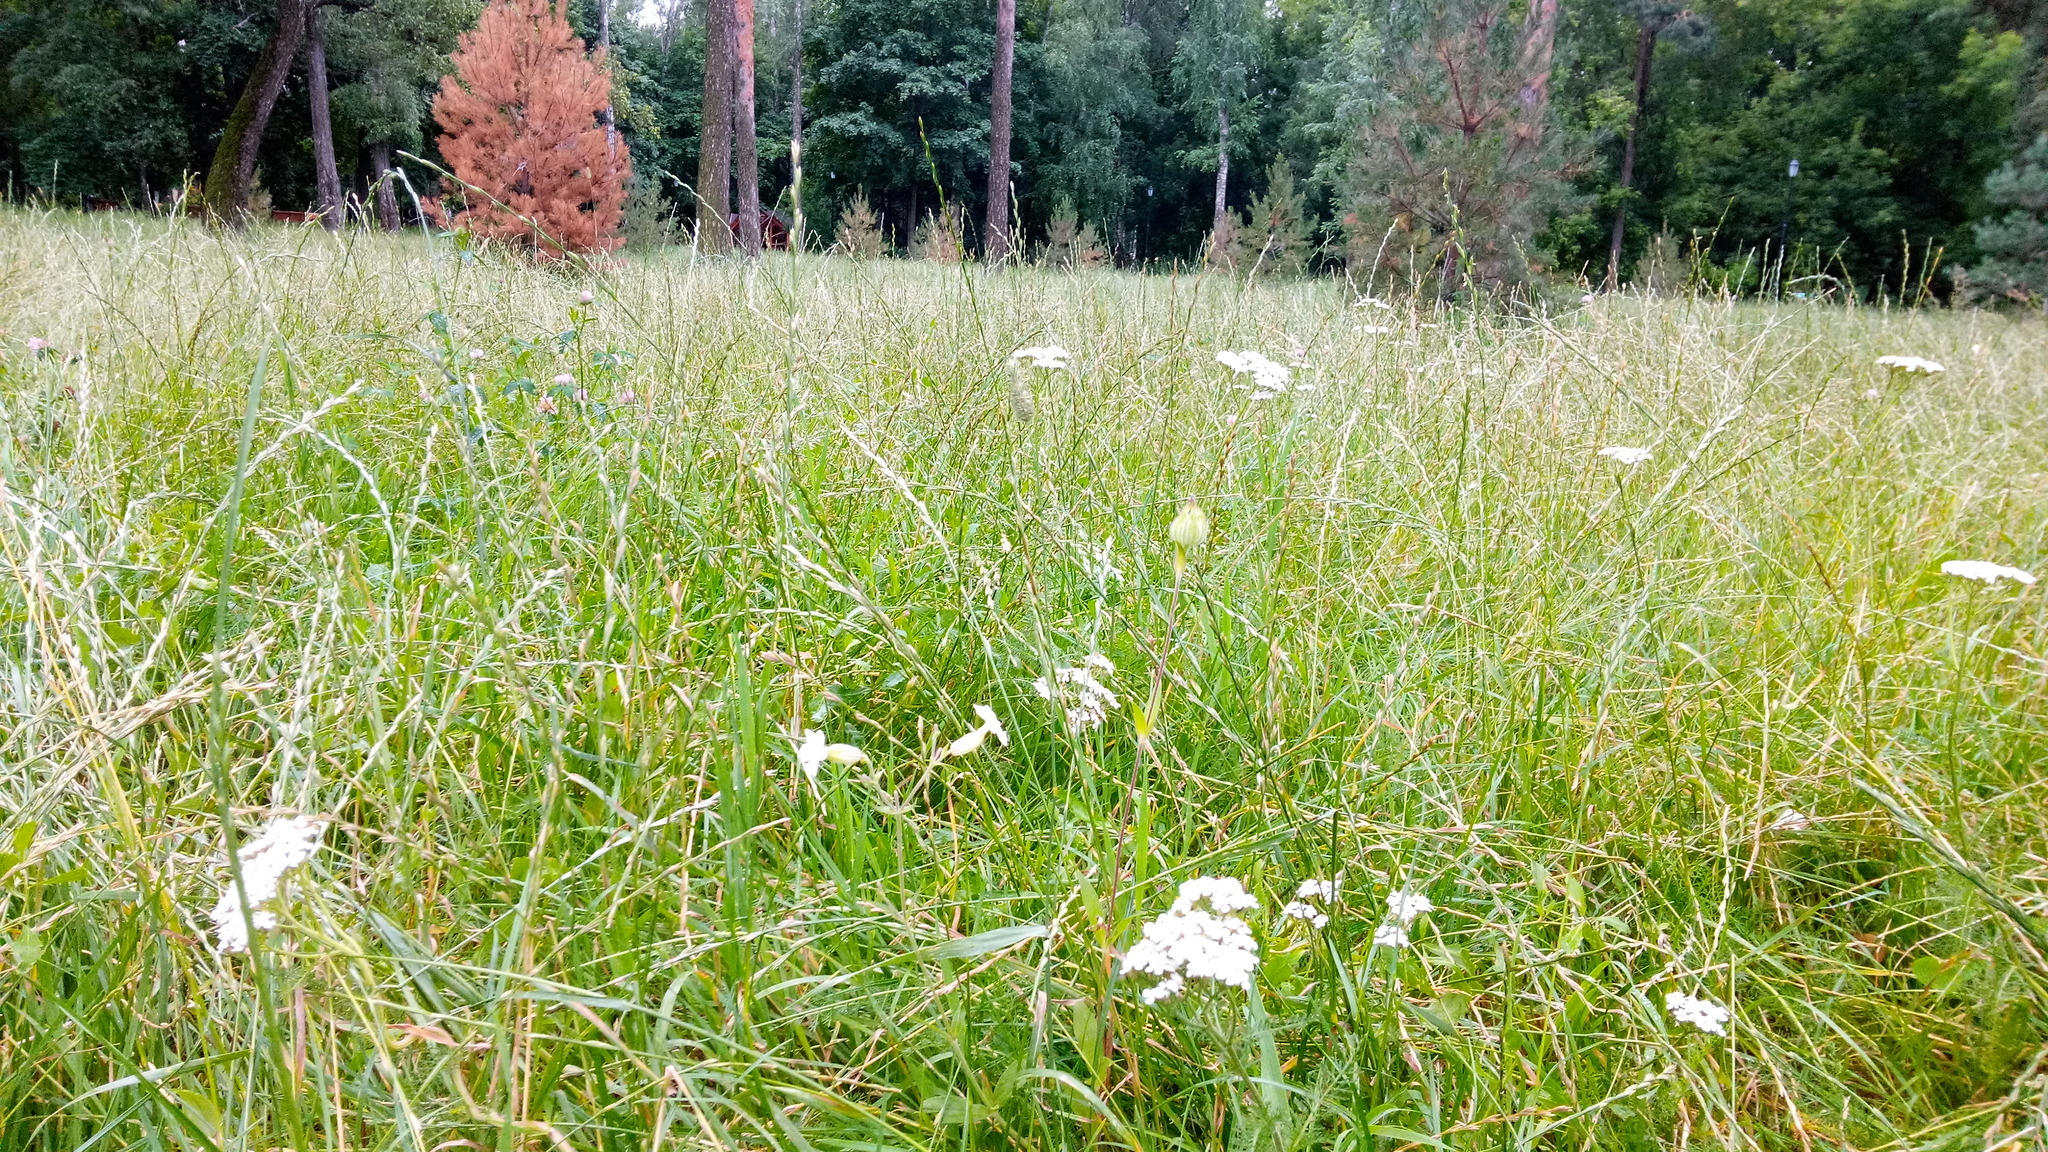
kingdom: Plantae
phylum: Tracheophyta
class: Magnoliopsida
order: Asterales
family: Asteraceae
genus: Achillea
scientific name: Achillea millefolium
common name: Yarrow
